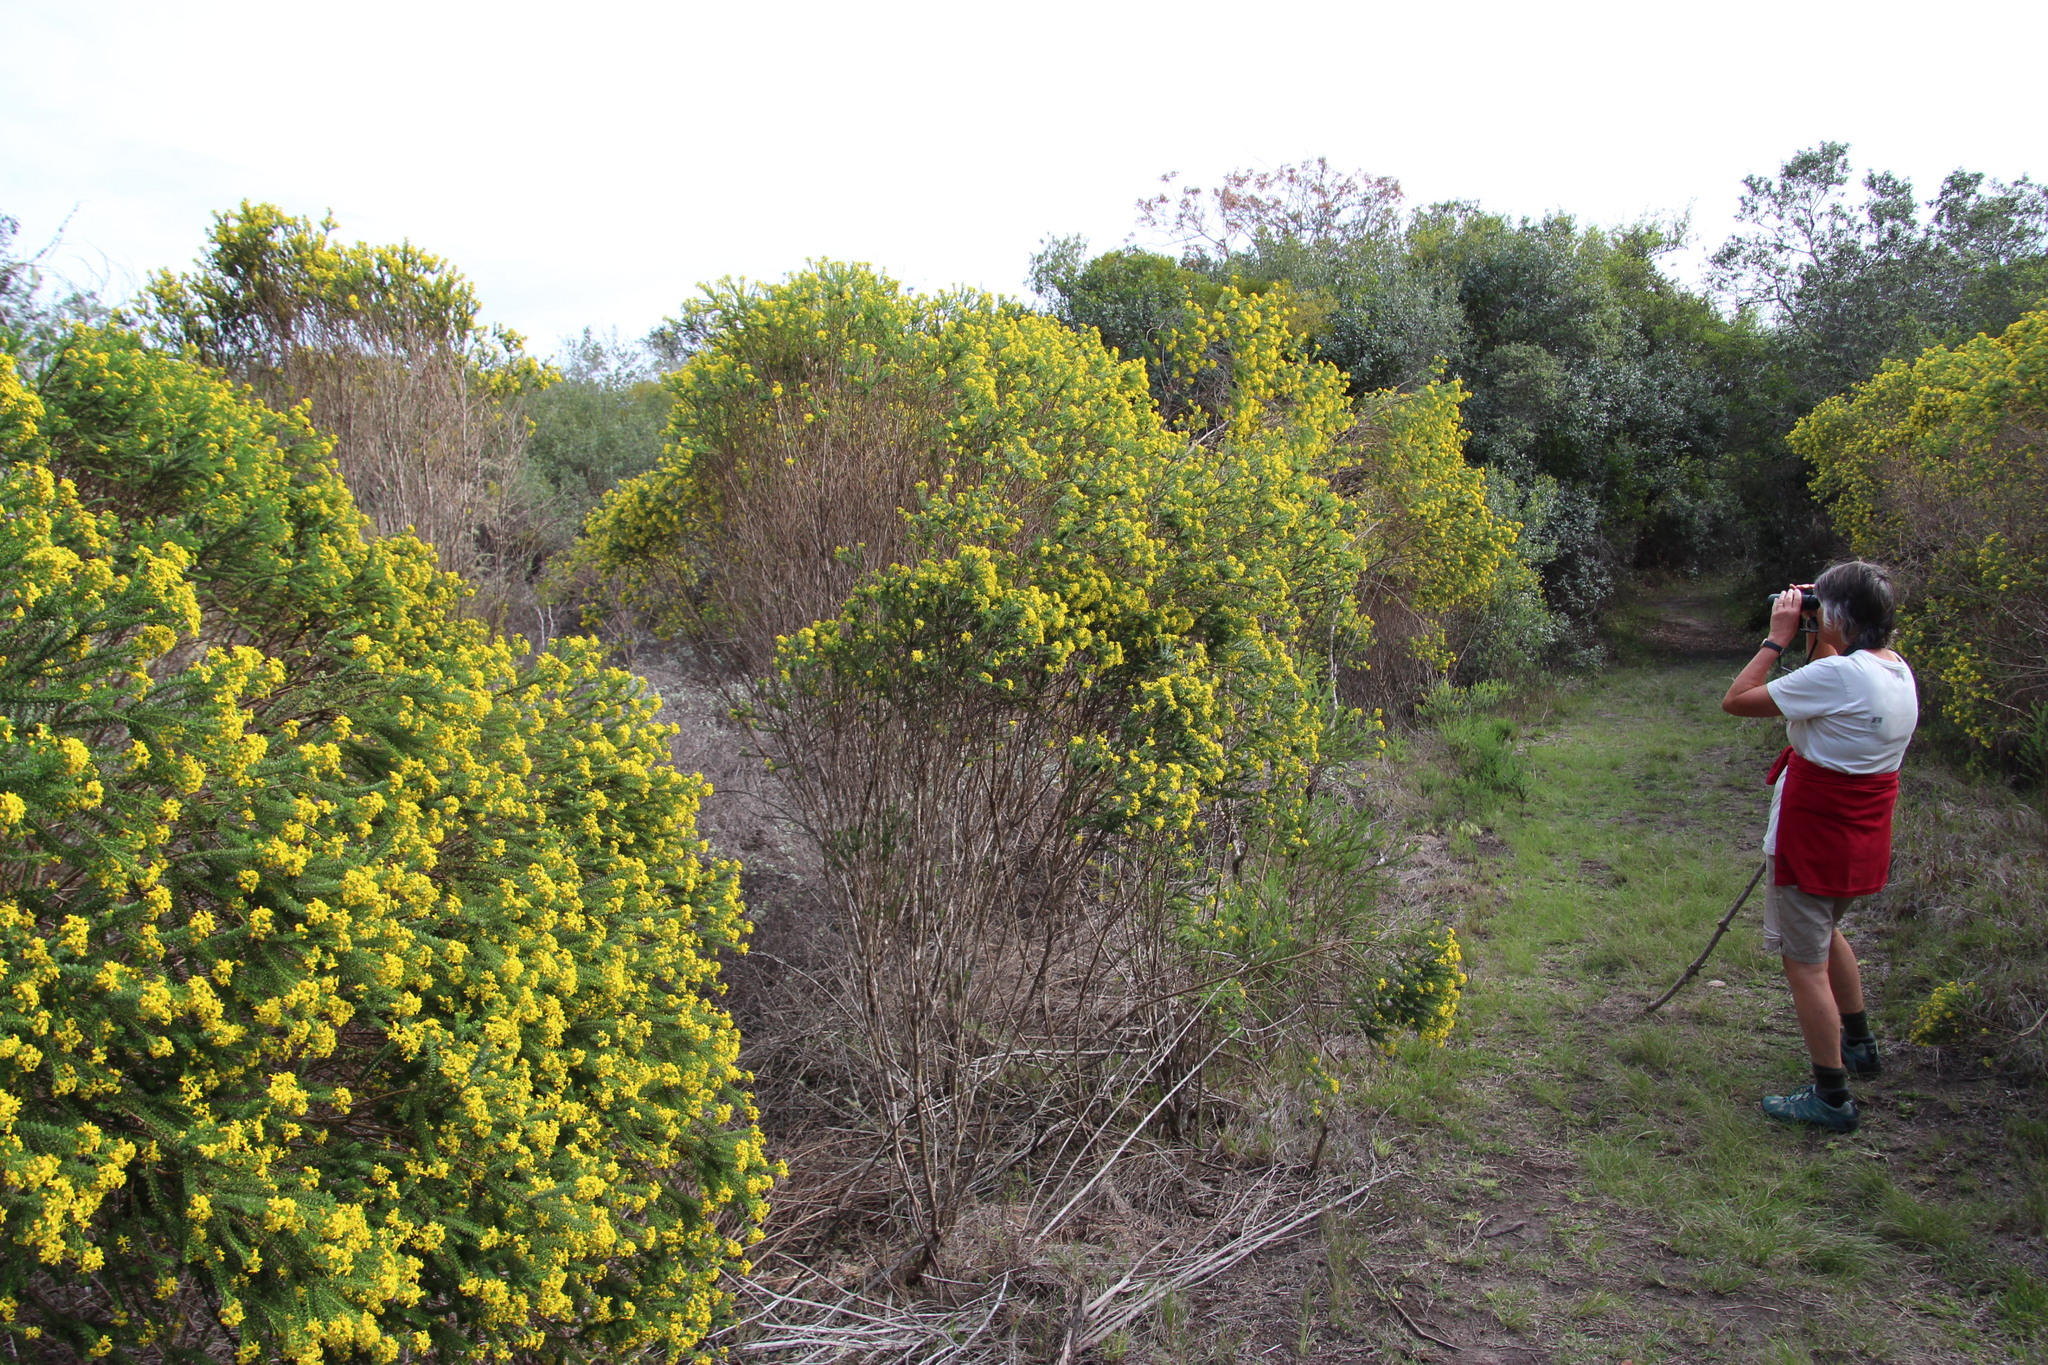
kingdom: Plantae
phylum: Tracheophyta
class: Magnoliopsida
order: Asterales
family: Asteraceae
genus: Euryops
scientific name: Euryops virgineus
